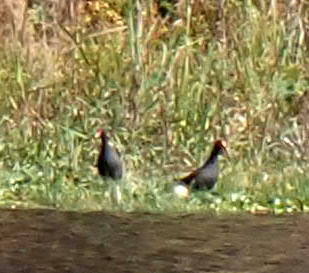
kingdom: Animalia
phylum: Chordata
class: Aves
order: Gruiformes
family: Rallidae
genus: Gallinula
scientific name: Gallinula chloropus
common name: Common moorhen
